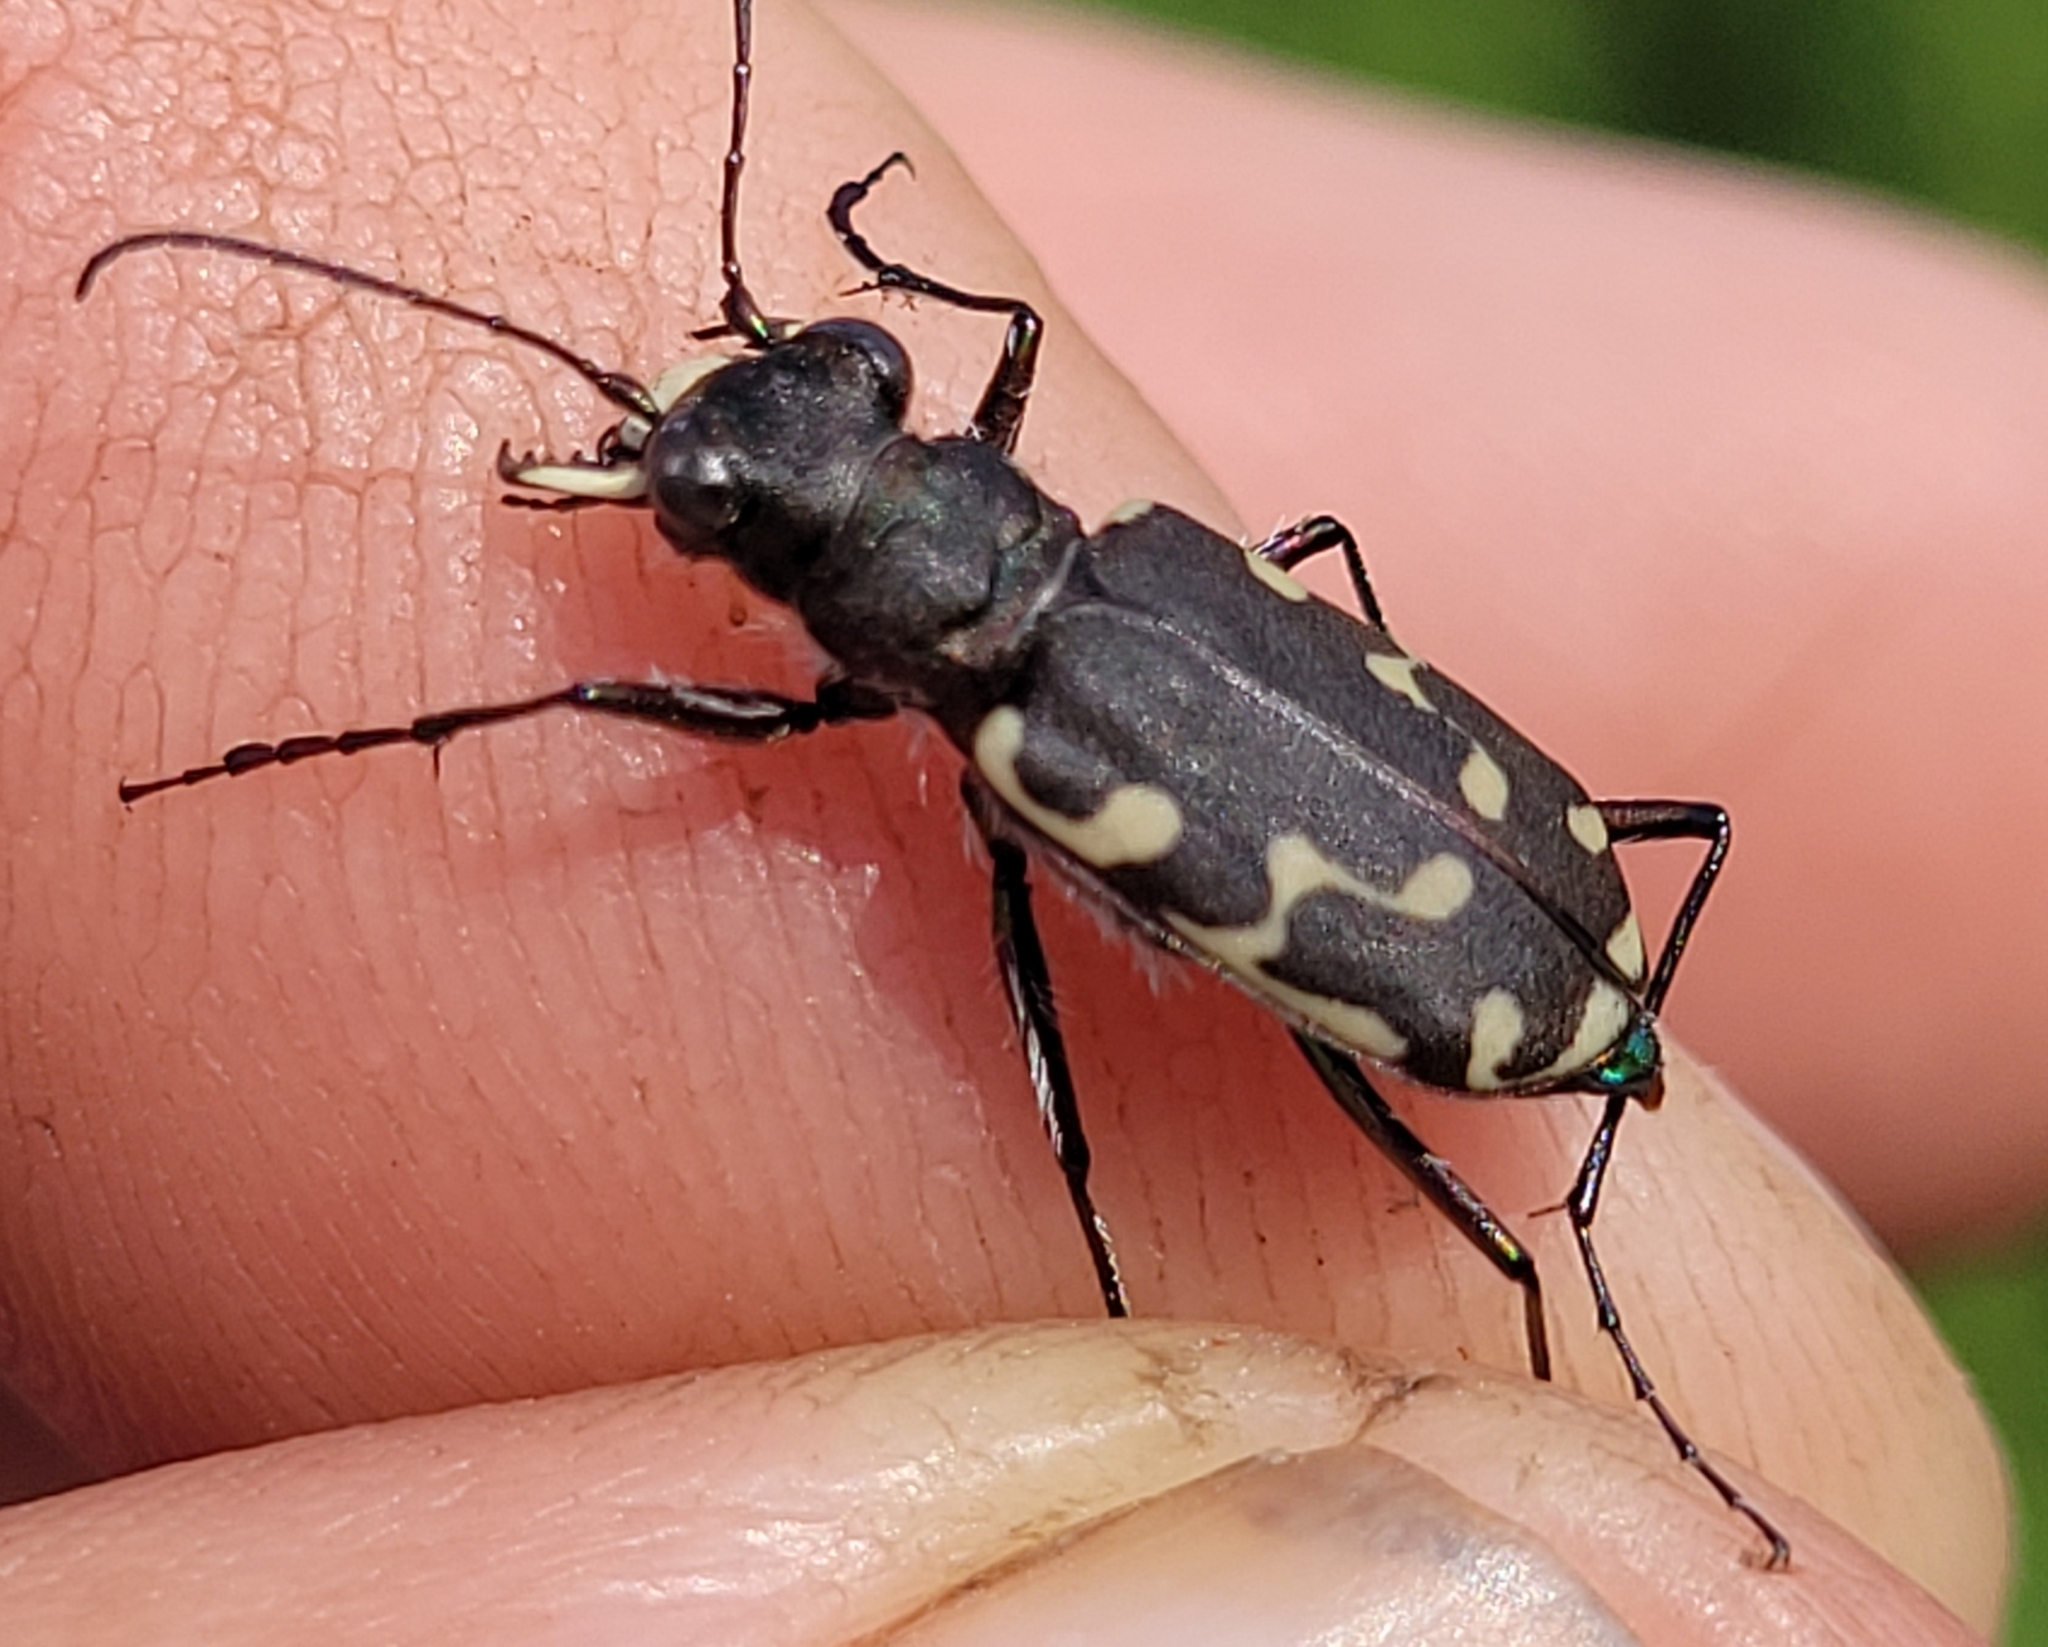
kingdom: Animalia
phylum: Arthropoda
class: Insecta
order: Coleoptera
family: Carabidae
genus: Cicindela
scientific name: Cicindela duodecimguttata
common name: Twelve-spotted tiger beetle
